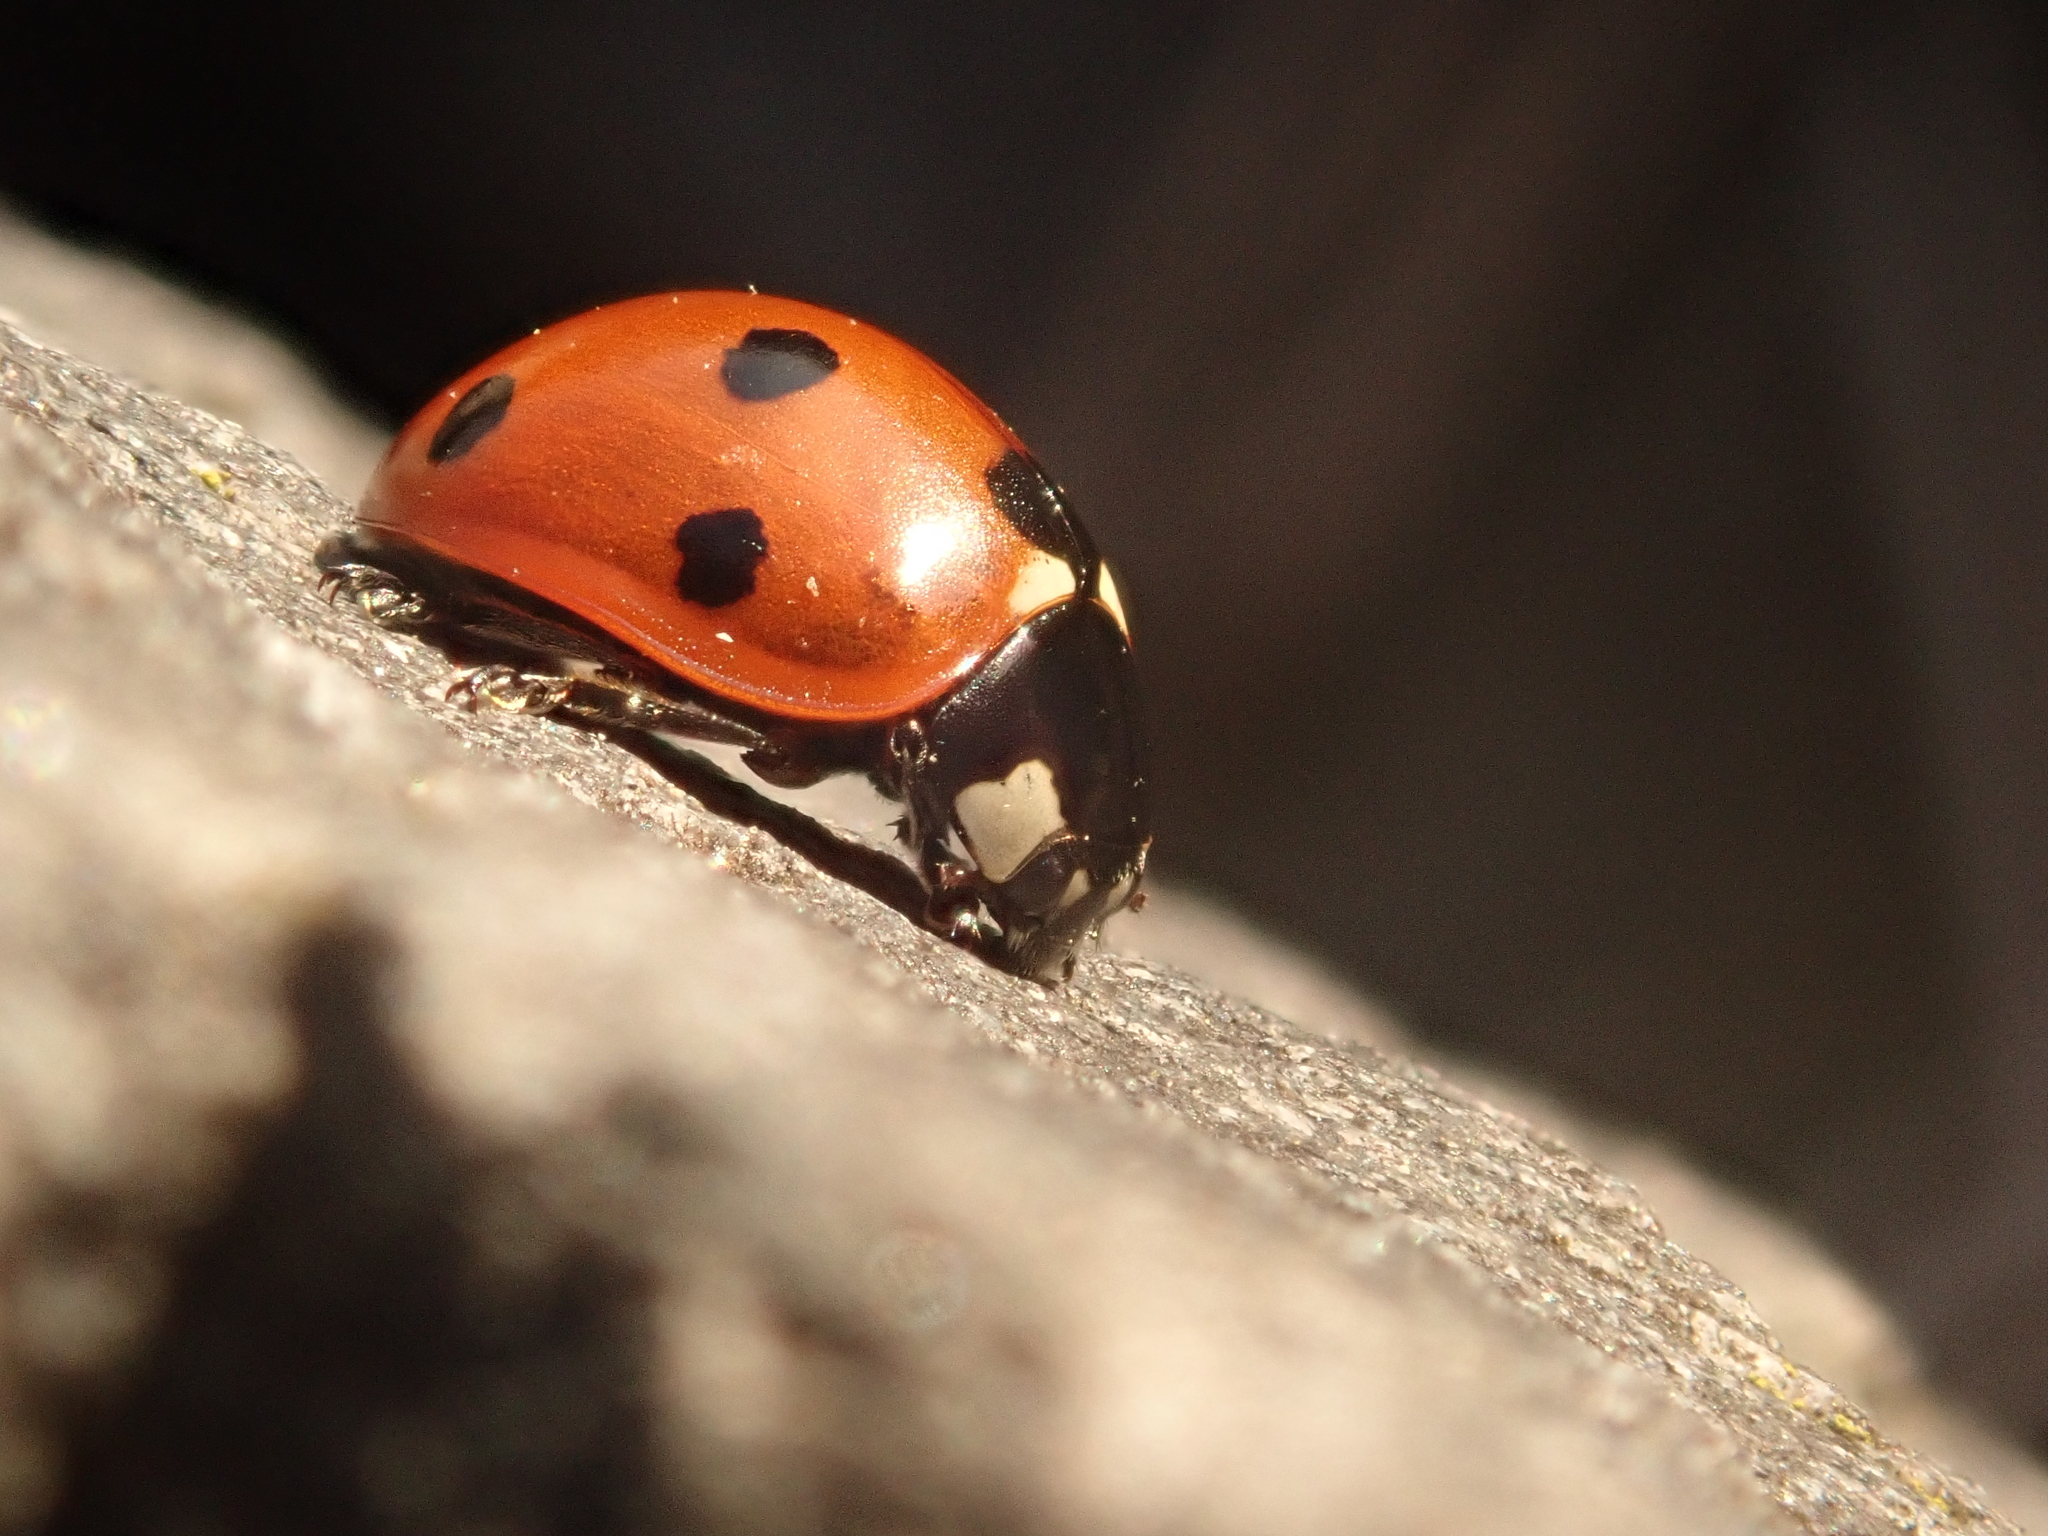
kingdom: Animalia
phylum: Arthropoda
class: Insecta
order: Coleoptera
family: Coccinellidae
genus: Coccinella
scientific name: Coccinella septempunctata
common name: Sevenspotted lady beetle
